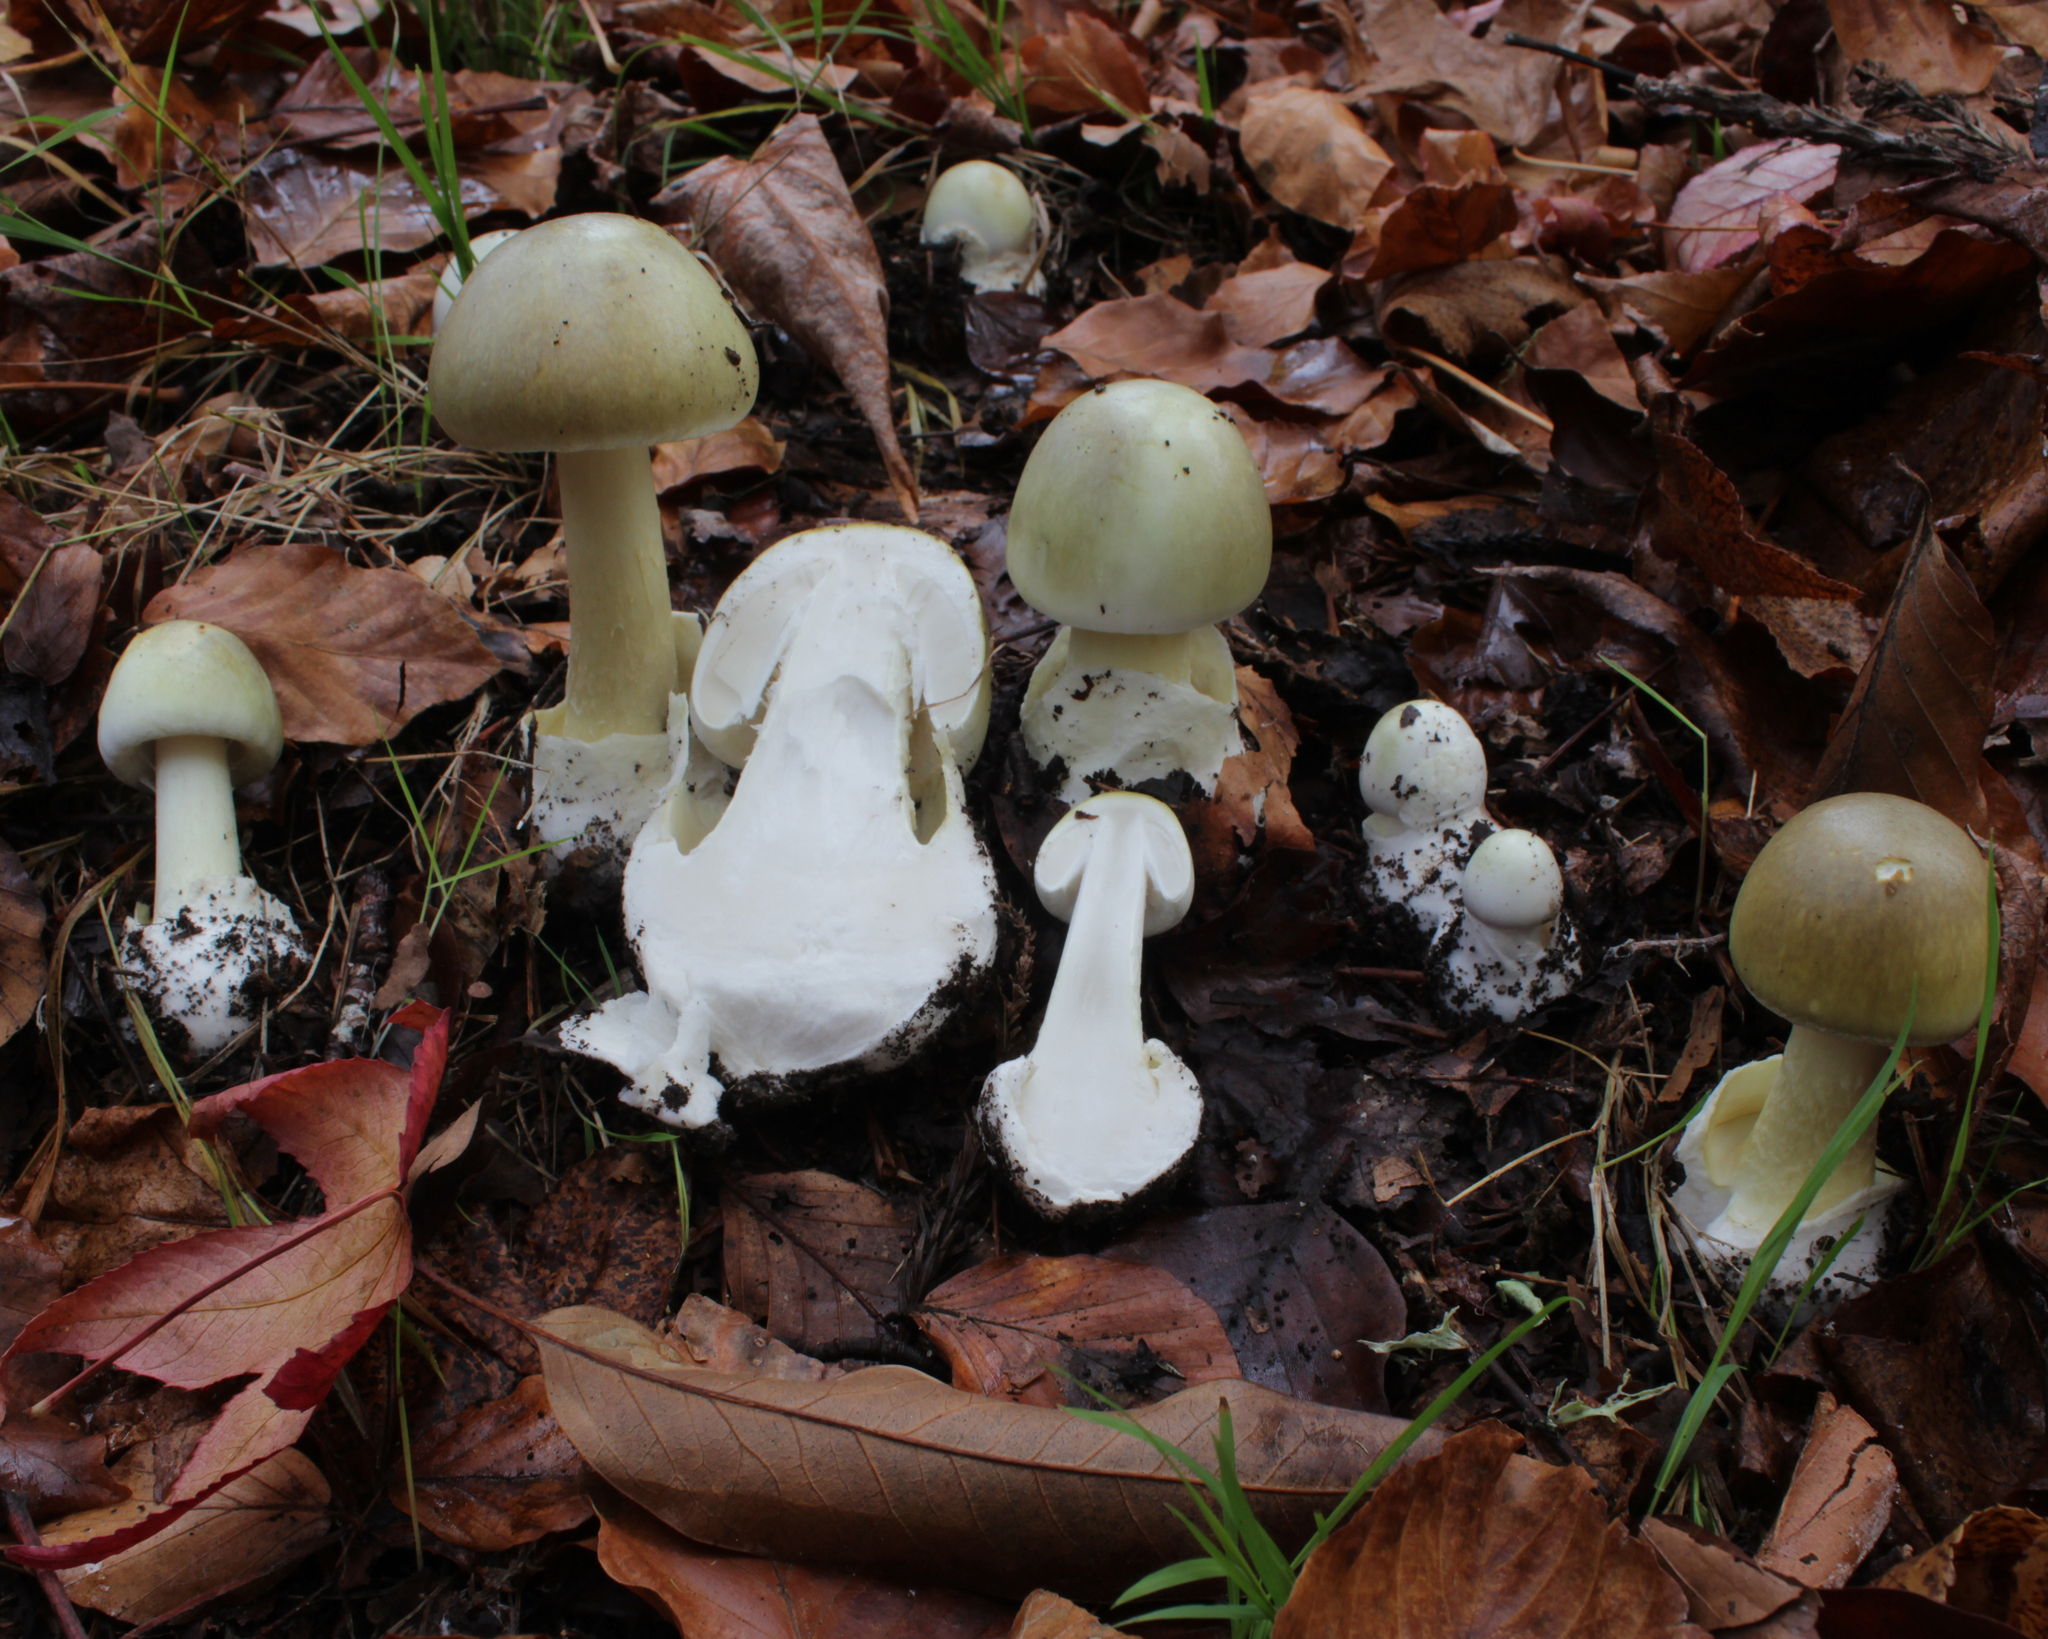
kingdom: Fungi
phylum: Basidiomycota
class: Agaricomycetes
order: Agaricales
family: Amanitaceae
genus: Amanita
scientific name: Amanita phalloides
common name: Death cap
